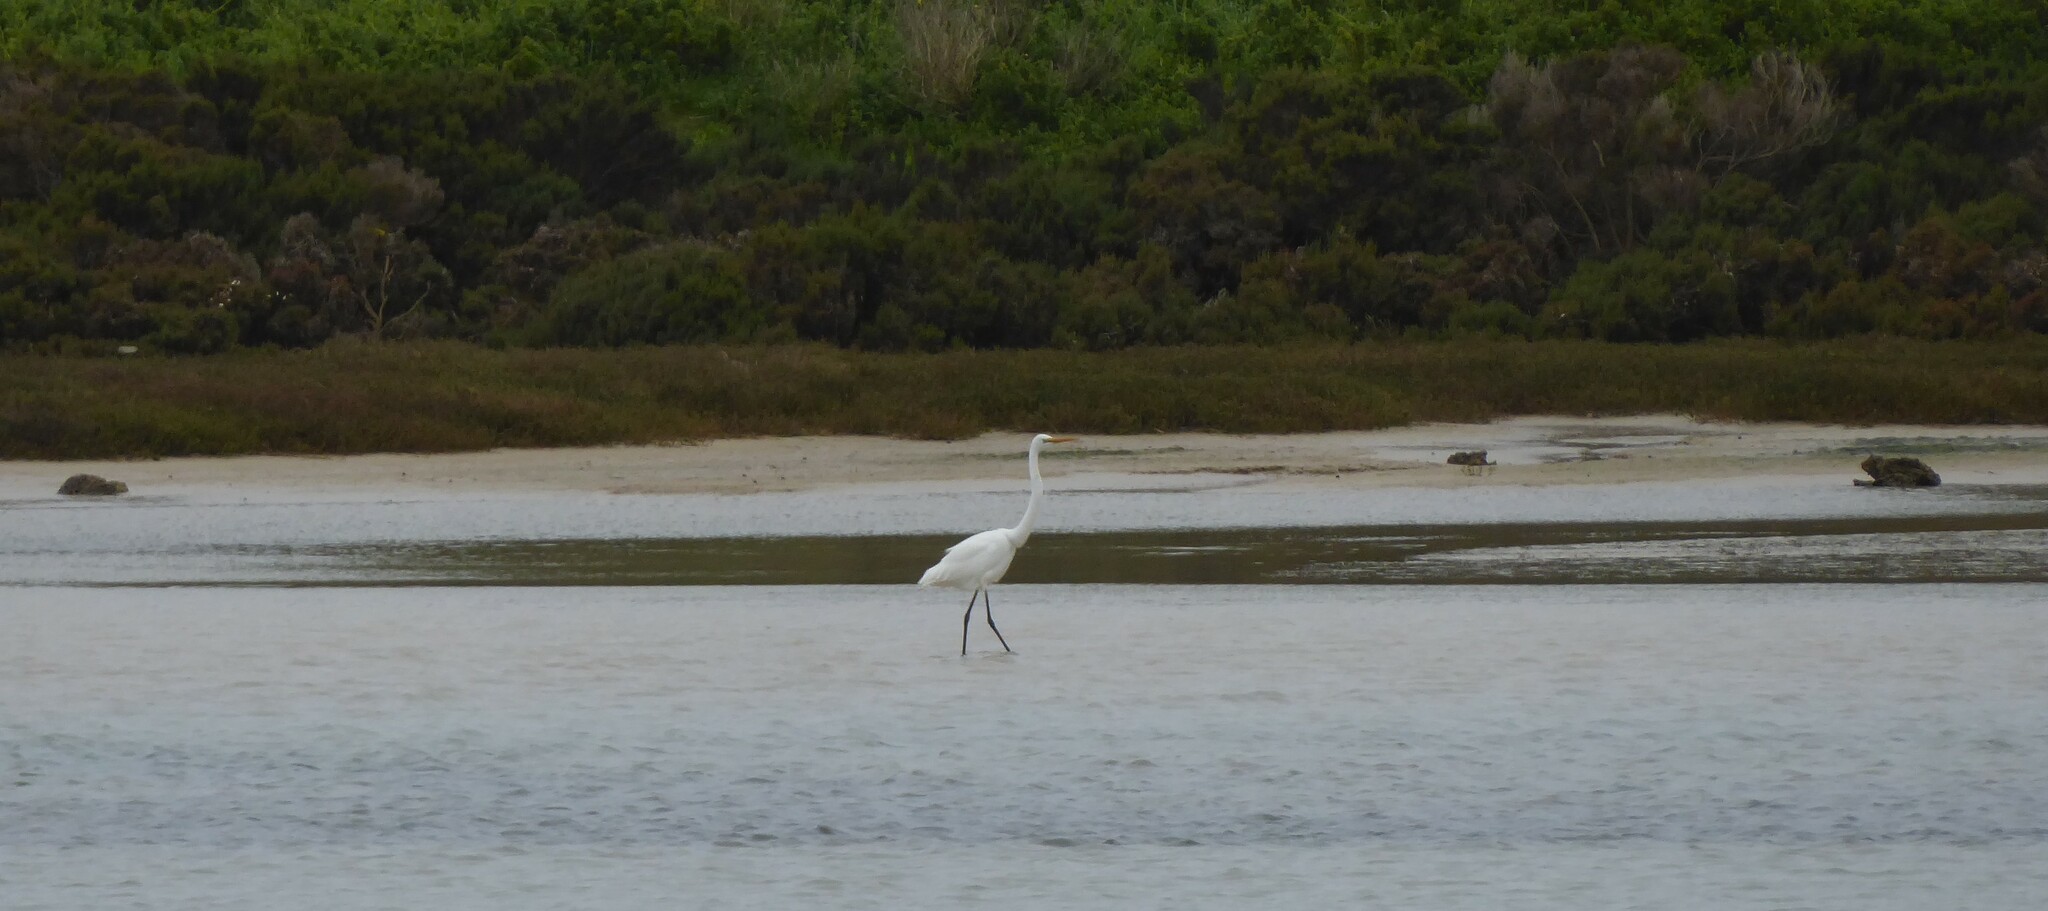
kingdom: Animalia
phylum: Chordata
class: Aves
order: Pelecaniformes
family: Ardeidae
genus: Ardea
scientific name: Ardea alba
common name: Great egret
